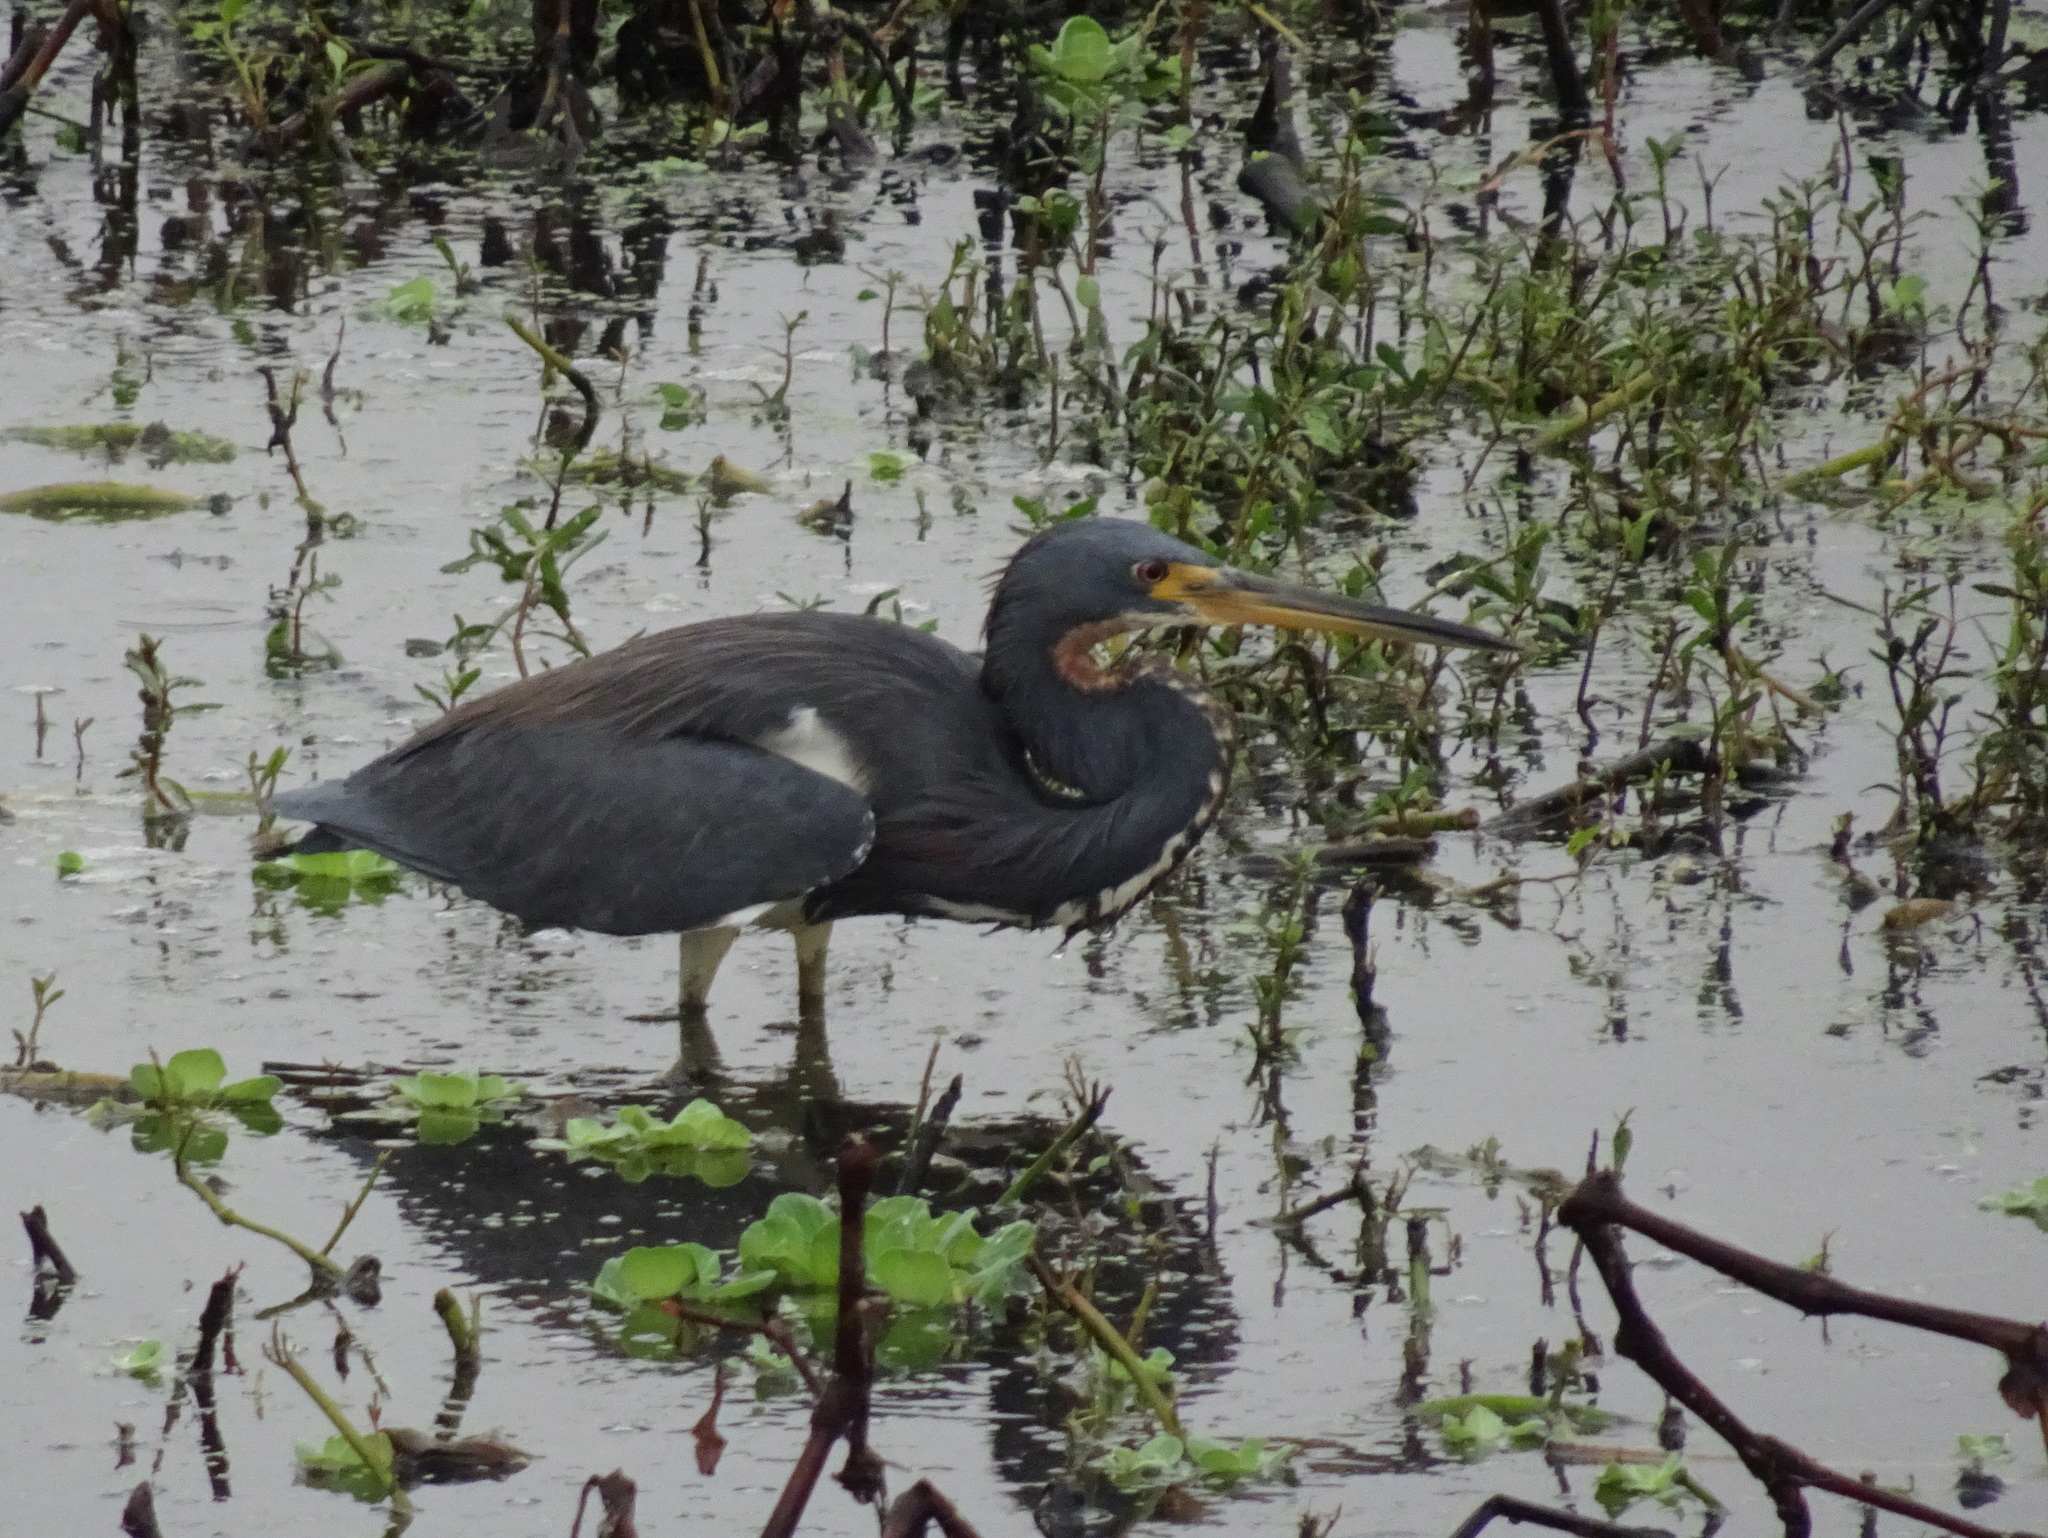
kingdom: Animalia
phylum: Chordata
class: Aves
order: Pelecaniformes
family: Ardeidae
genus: Egretta
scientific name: Egretta tricolor
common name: Tricolored heron
